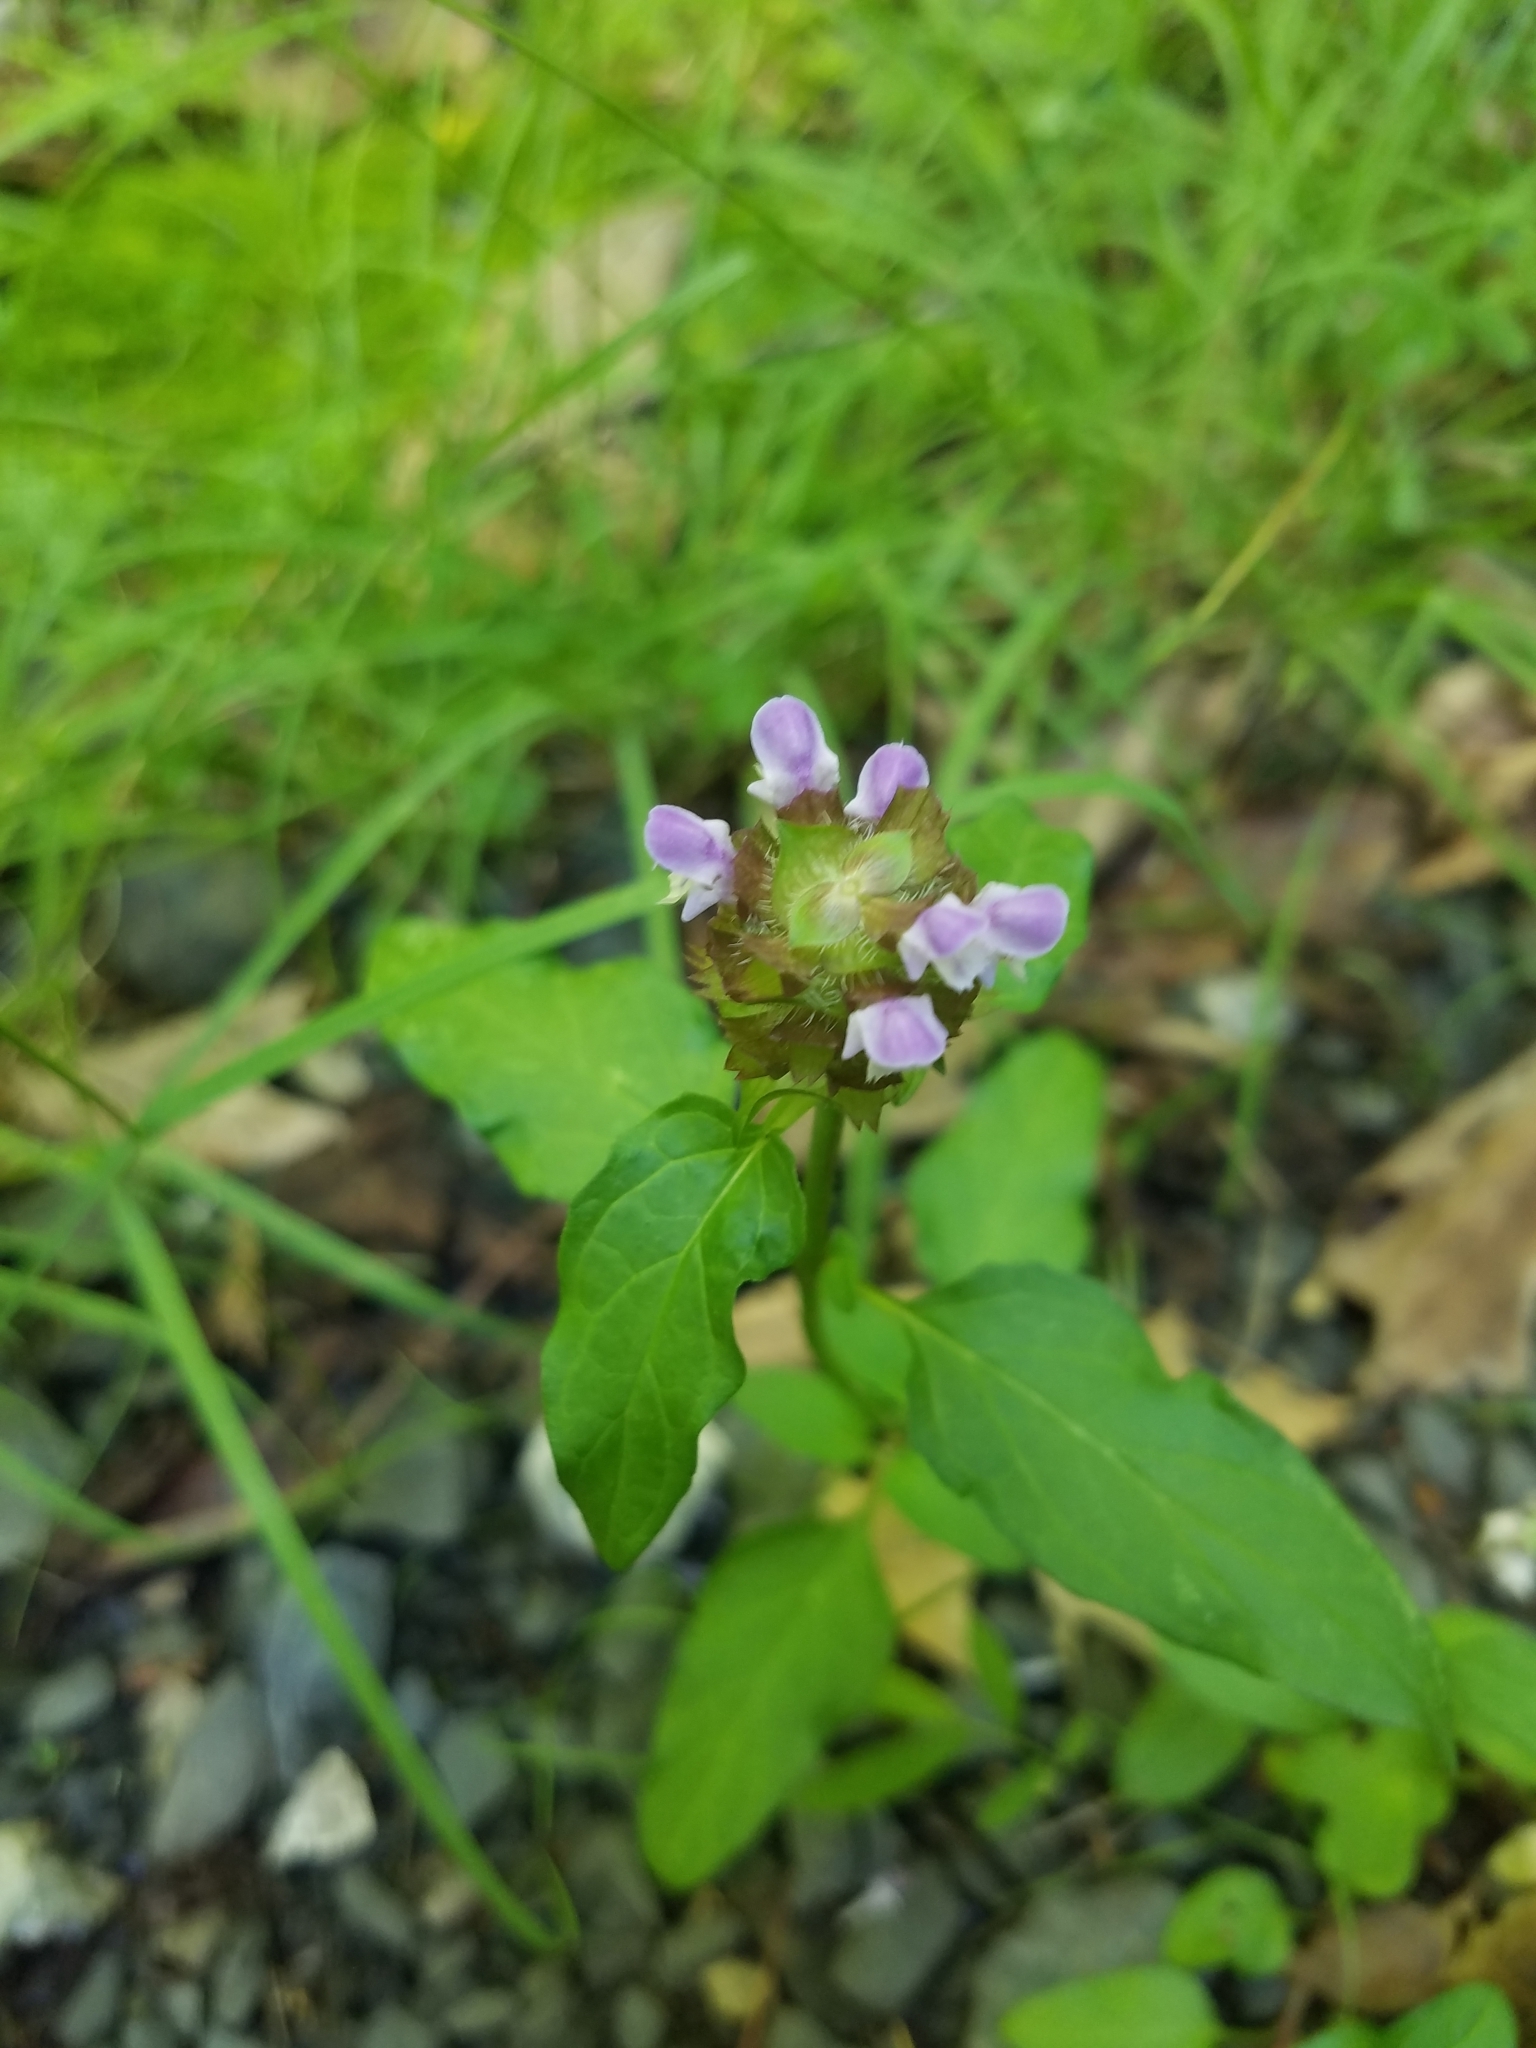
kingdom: Plantae
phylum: Tracheophyta
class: Magnoliopsida
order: Lamiales
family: Lamiaceae
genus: Prunella
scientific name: Prunella vulgaris
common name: Heal-all
